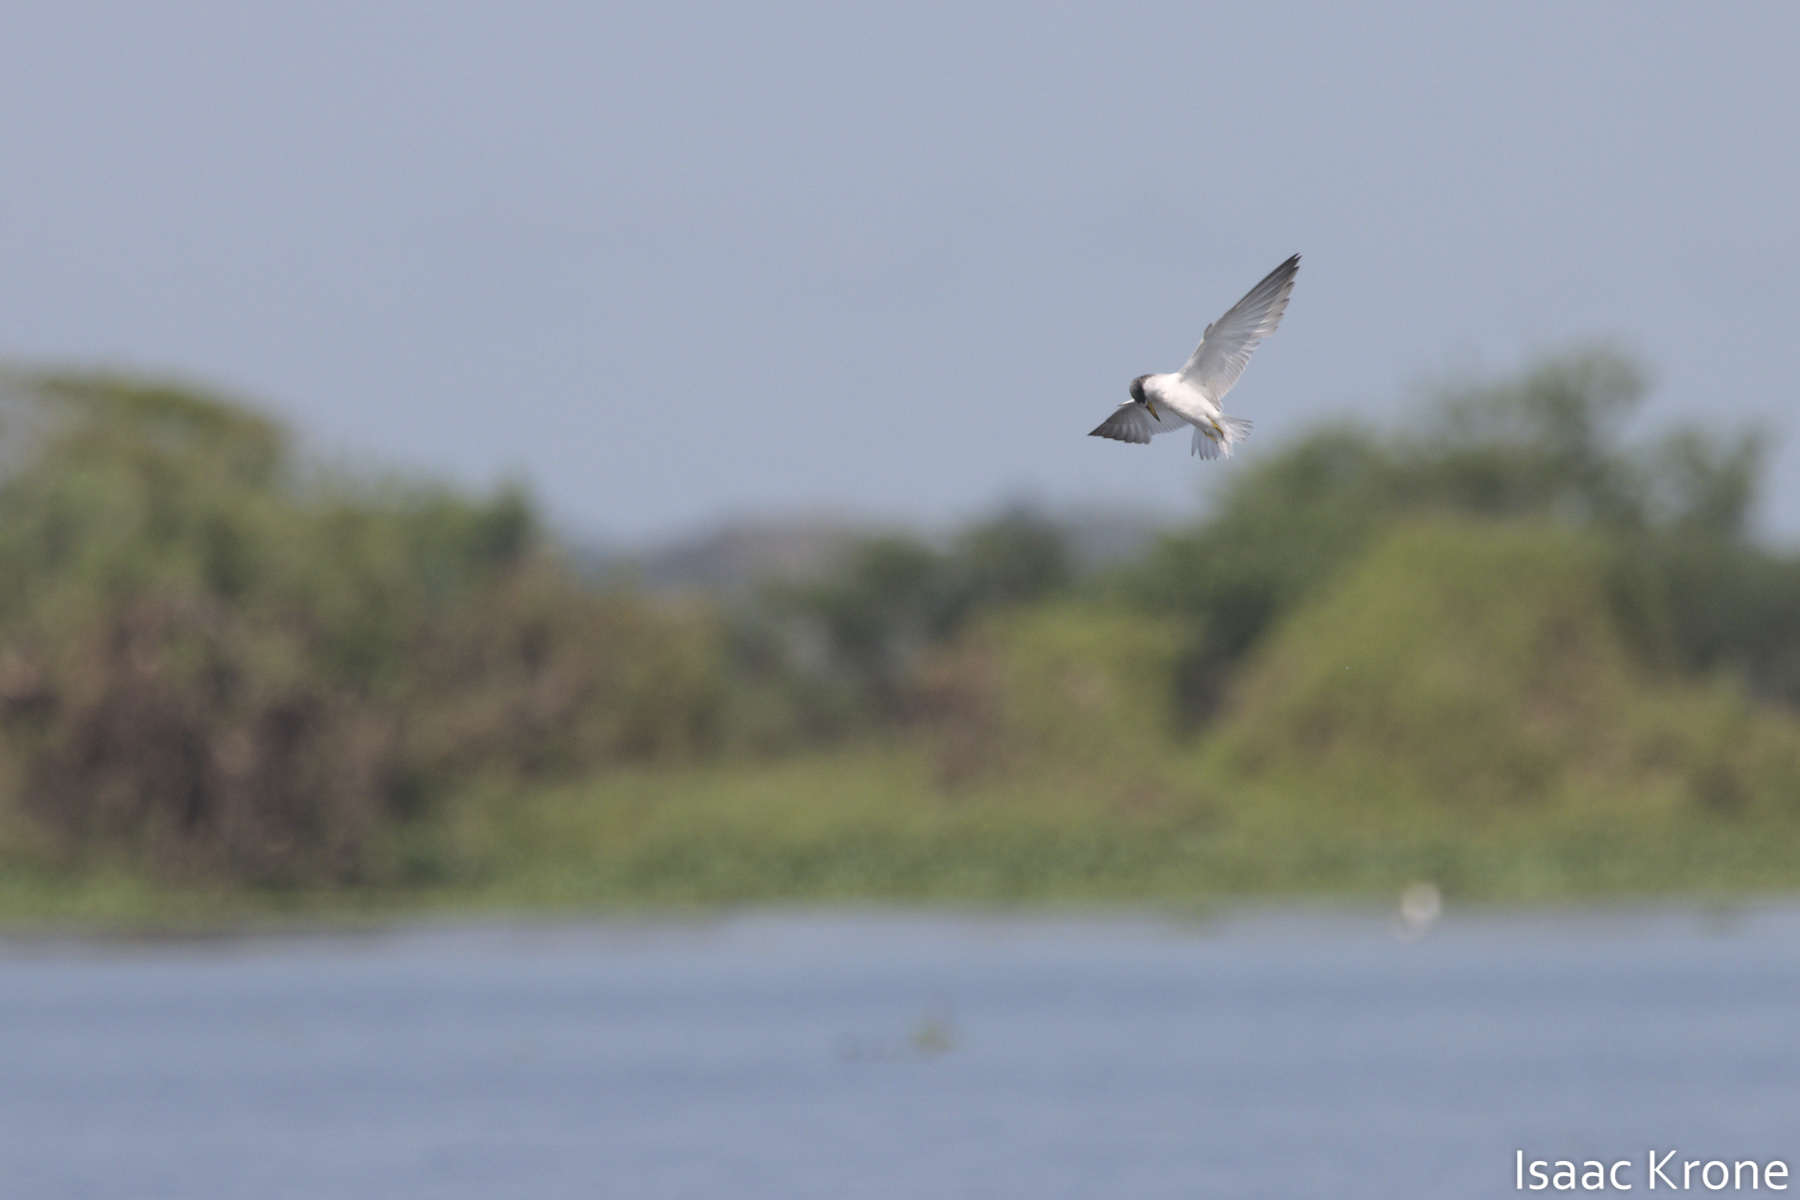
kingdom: Animalia
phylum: Chordata
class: Aves
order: Charadriiformes
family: Laridae
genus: Sternula
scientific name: Sternula superciliaris
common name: Yellow-billed tern
